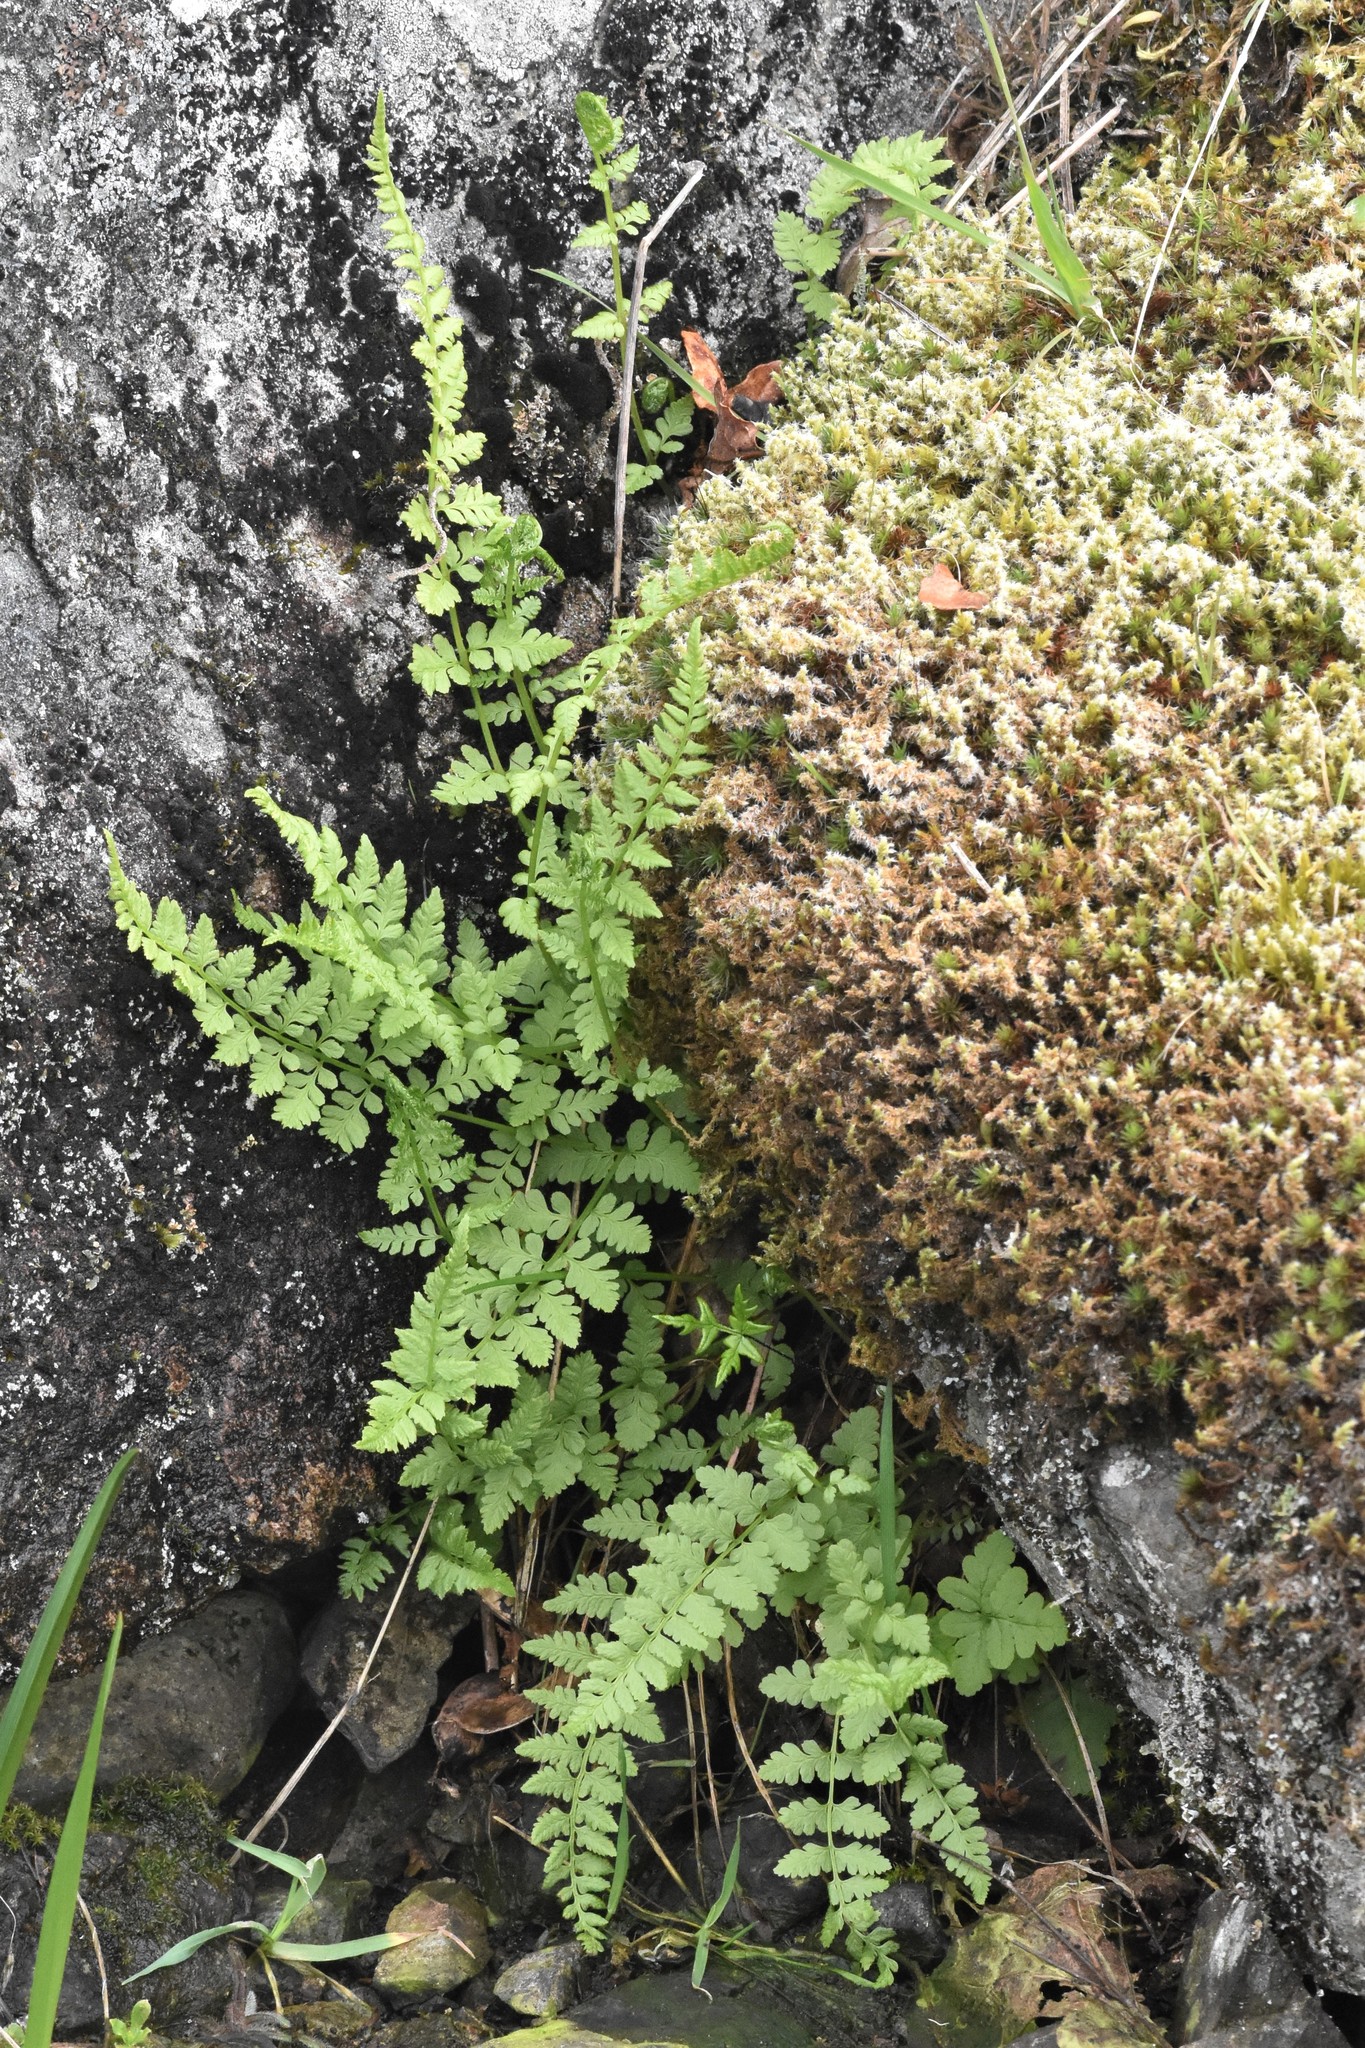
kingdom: Plantae
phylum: Tracheophyta
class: Polypodiopsida
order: Polypodiales
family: Cystopteridaceae
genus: Cystopteris
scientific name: Cystopteris fragilis
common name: Brittle bladder fern
